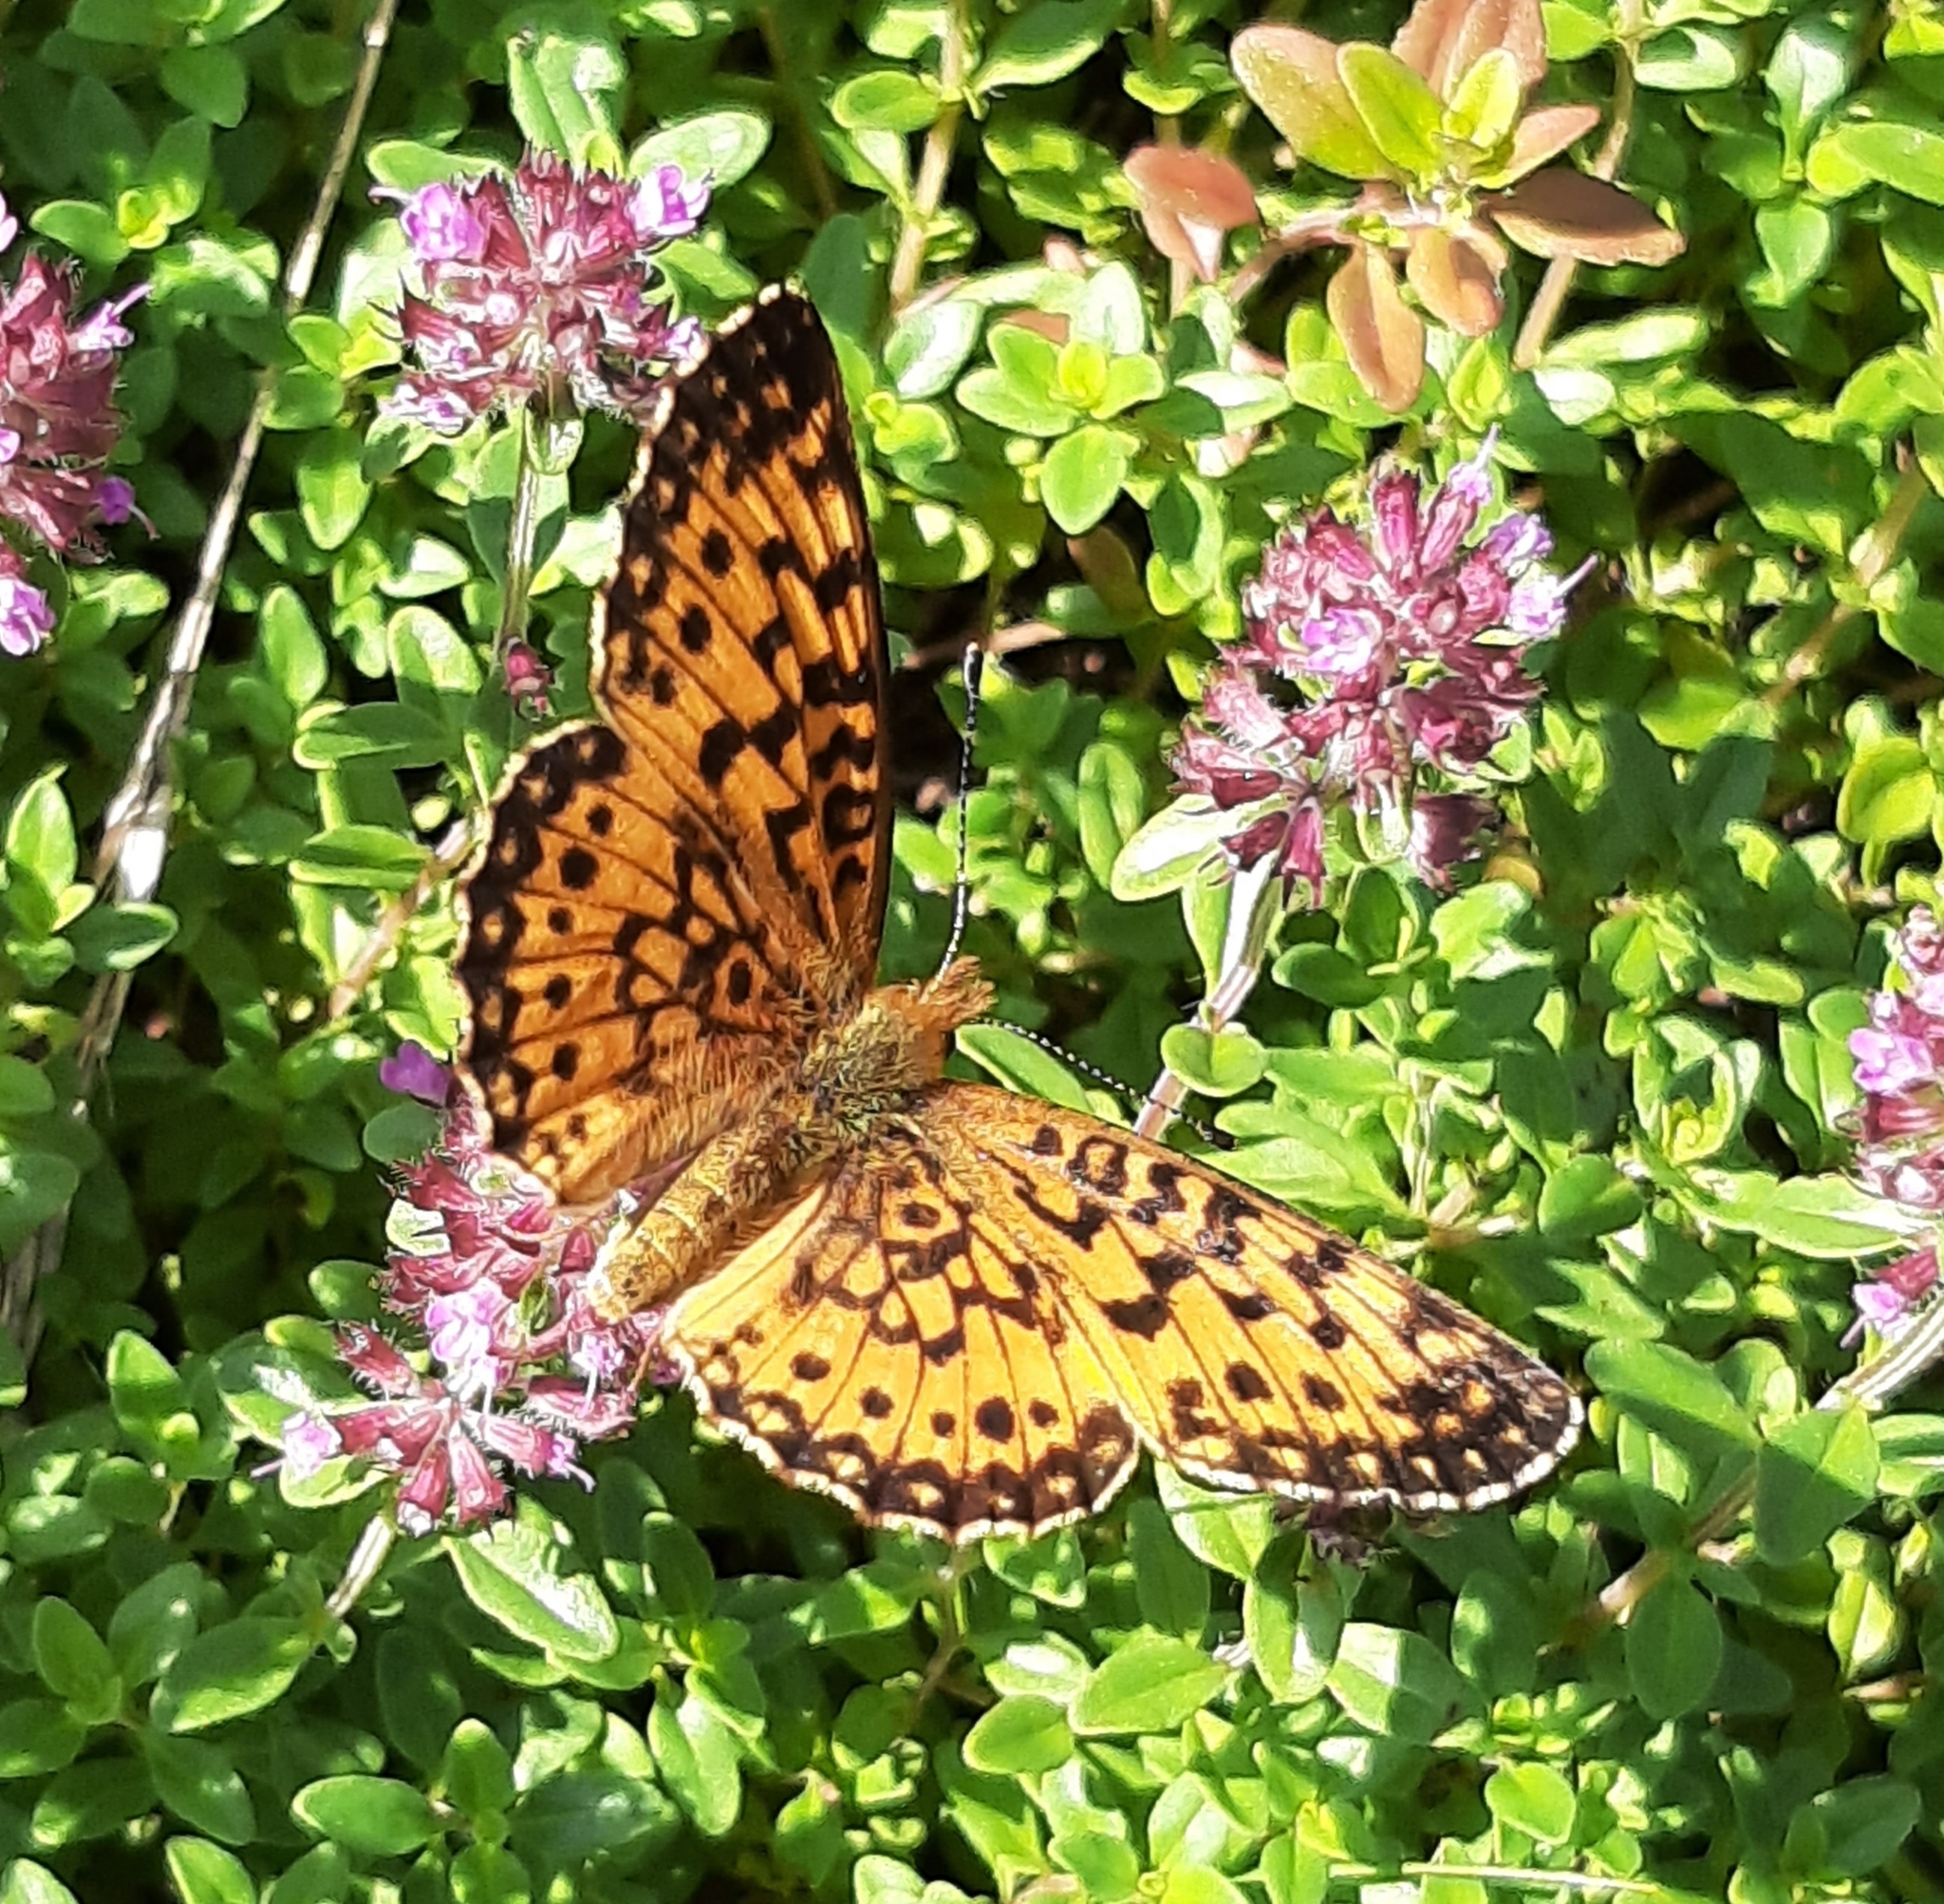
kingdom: Animalia
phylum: Arthropoda
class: Insecta
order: Lepidoptera
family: Nymphalidae
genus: Boloria
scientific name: Boloria
